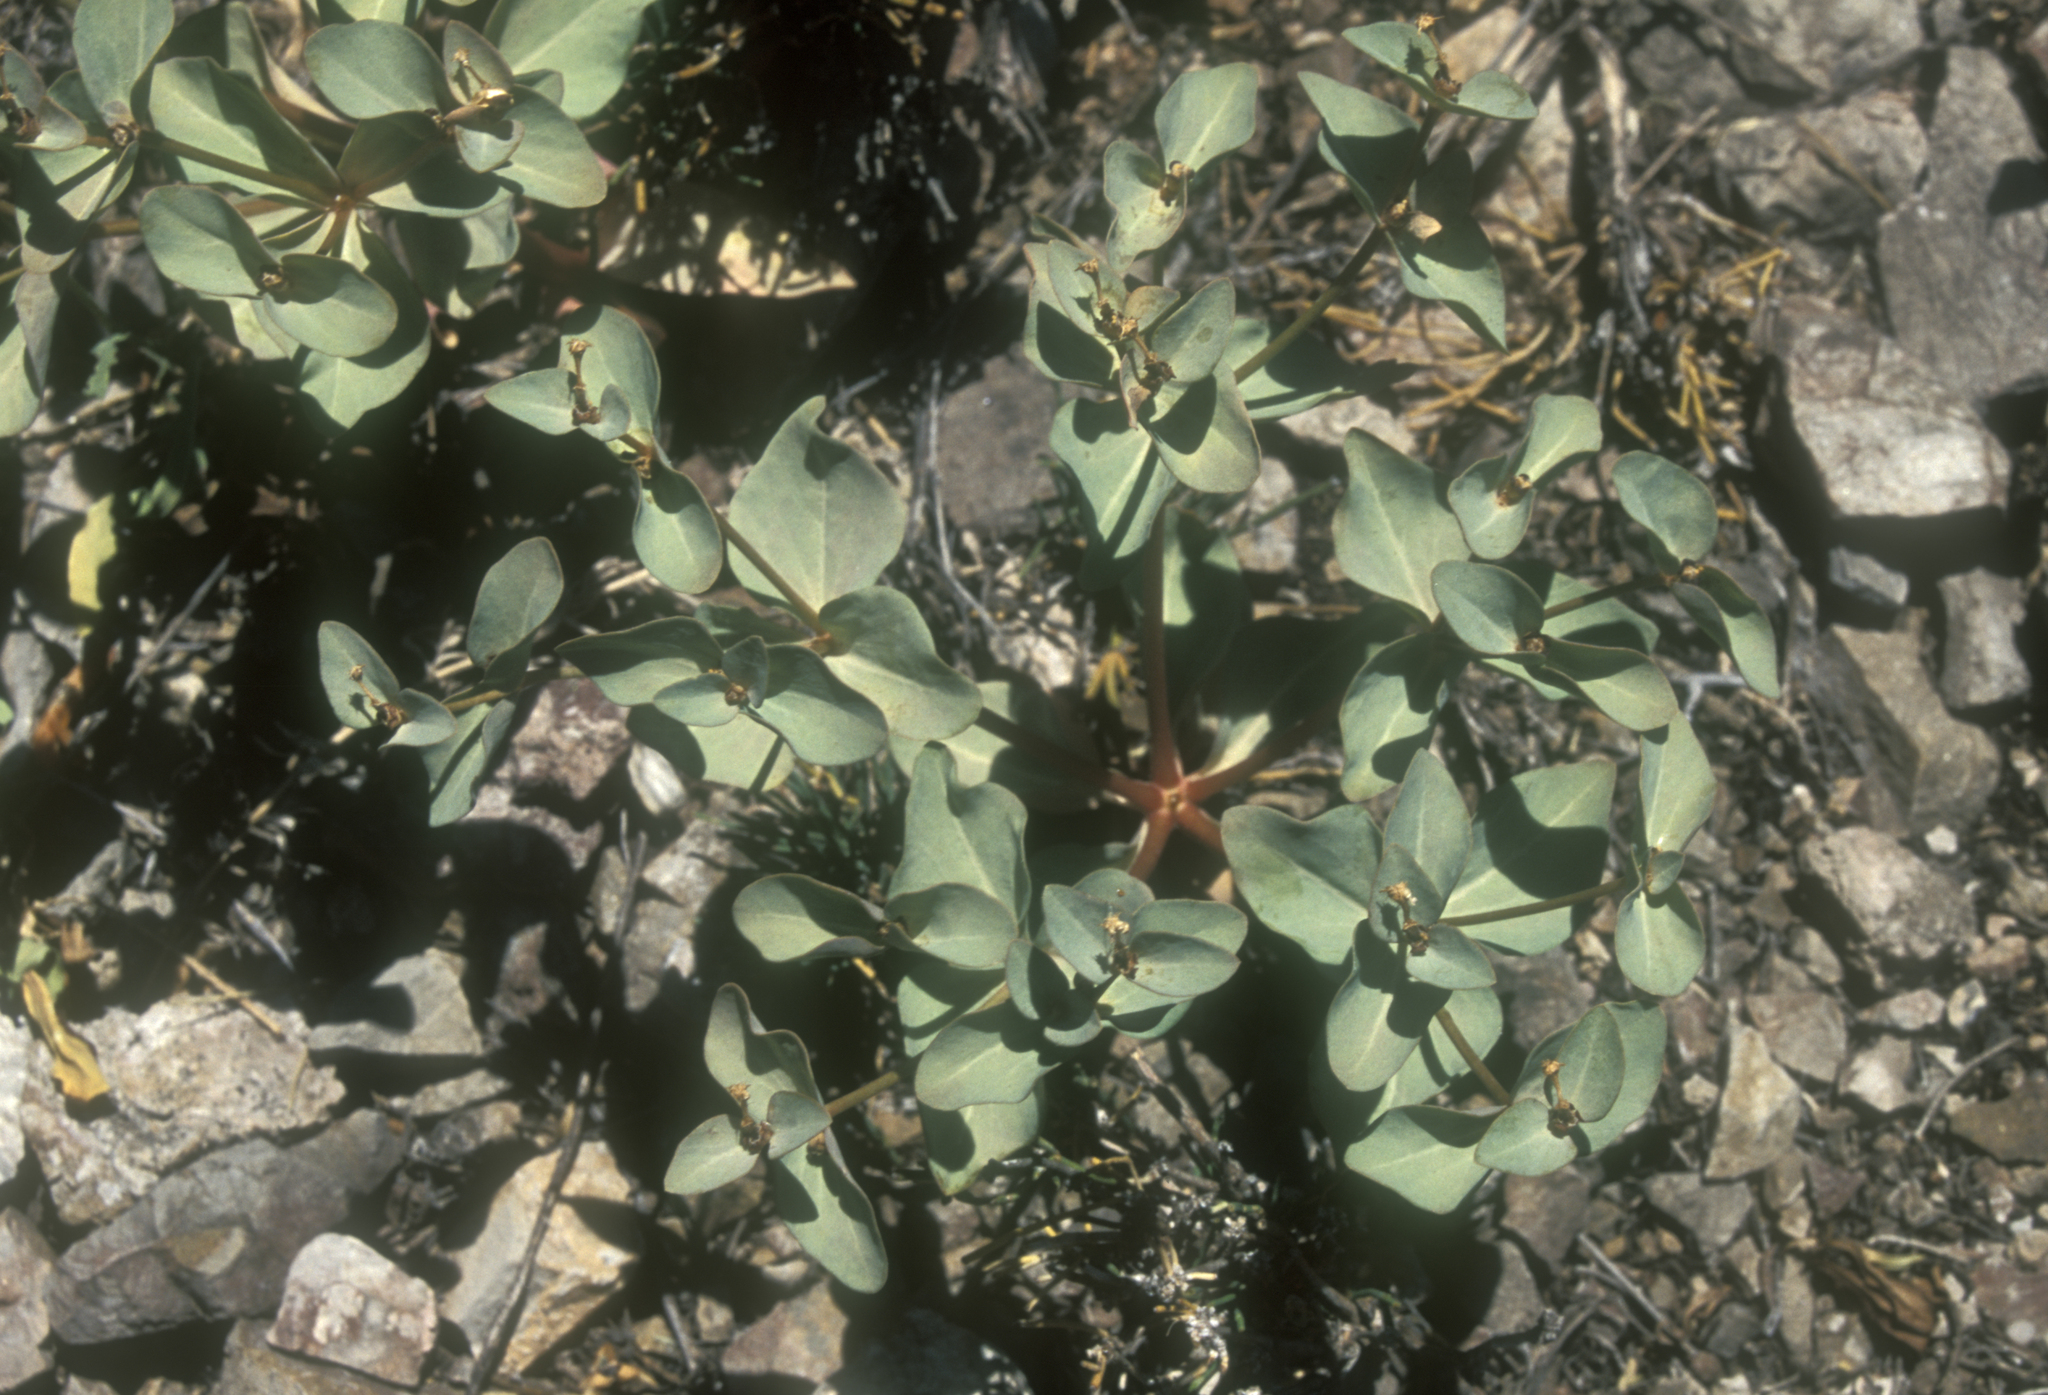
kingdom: Plantae
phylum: Tracheophyta
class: Magnoliopsida
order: Malpighiales
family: Euphorbiaceae
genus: Euphorbia
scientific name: Euphorbia mongolica
